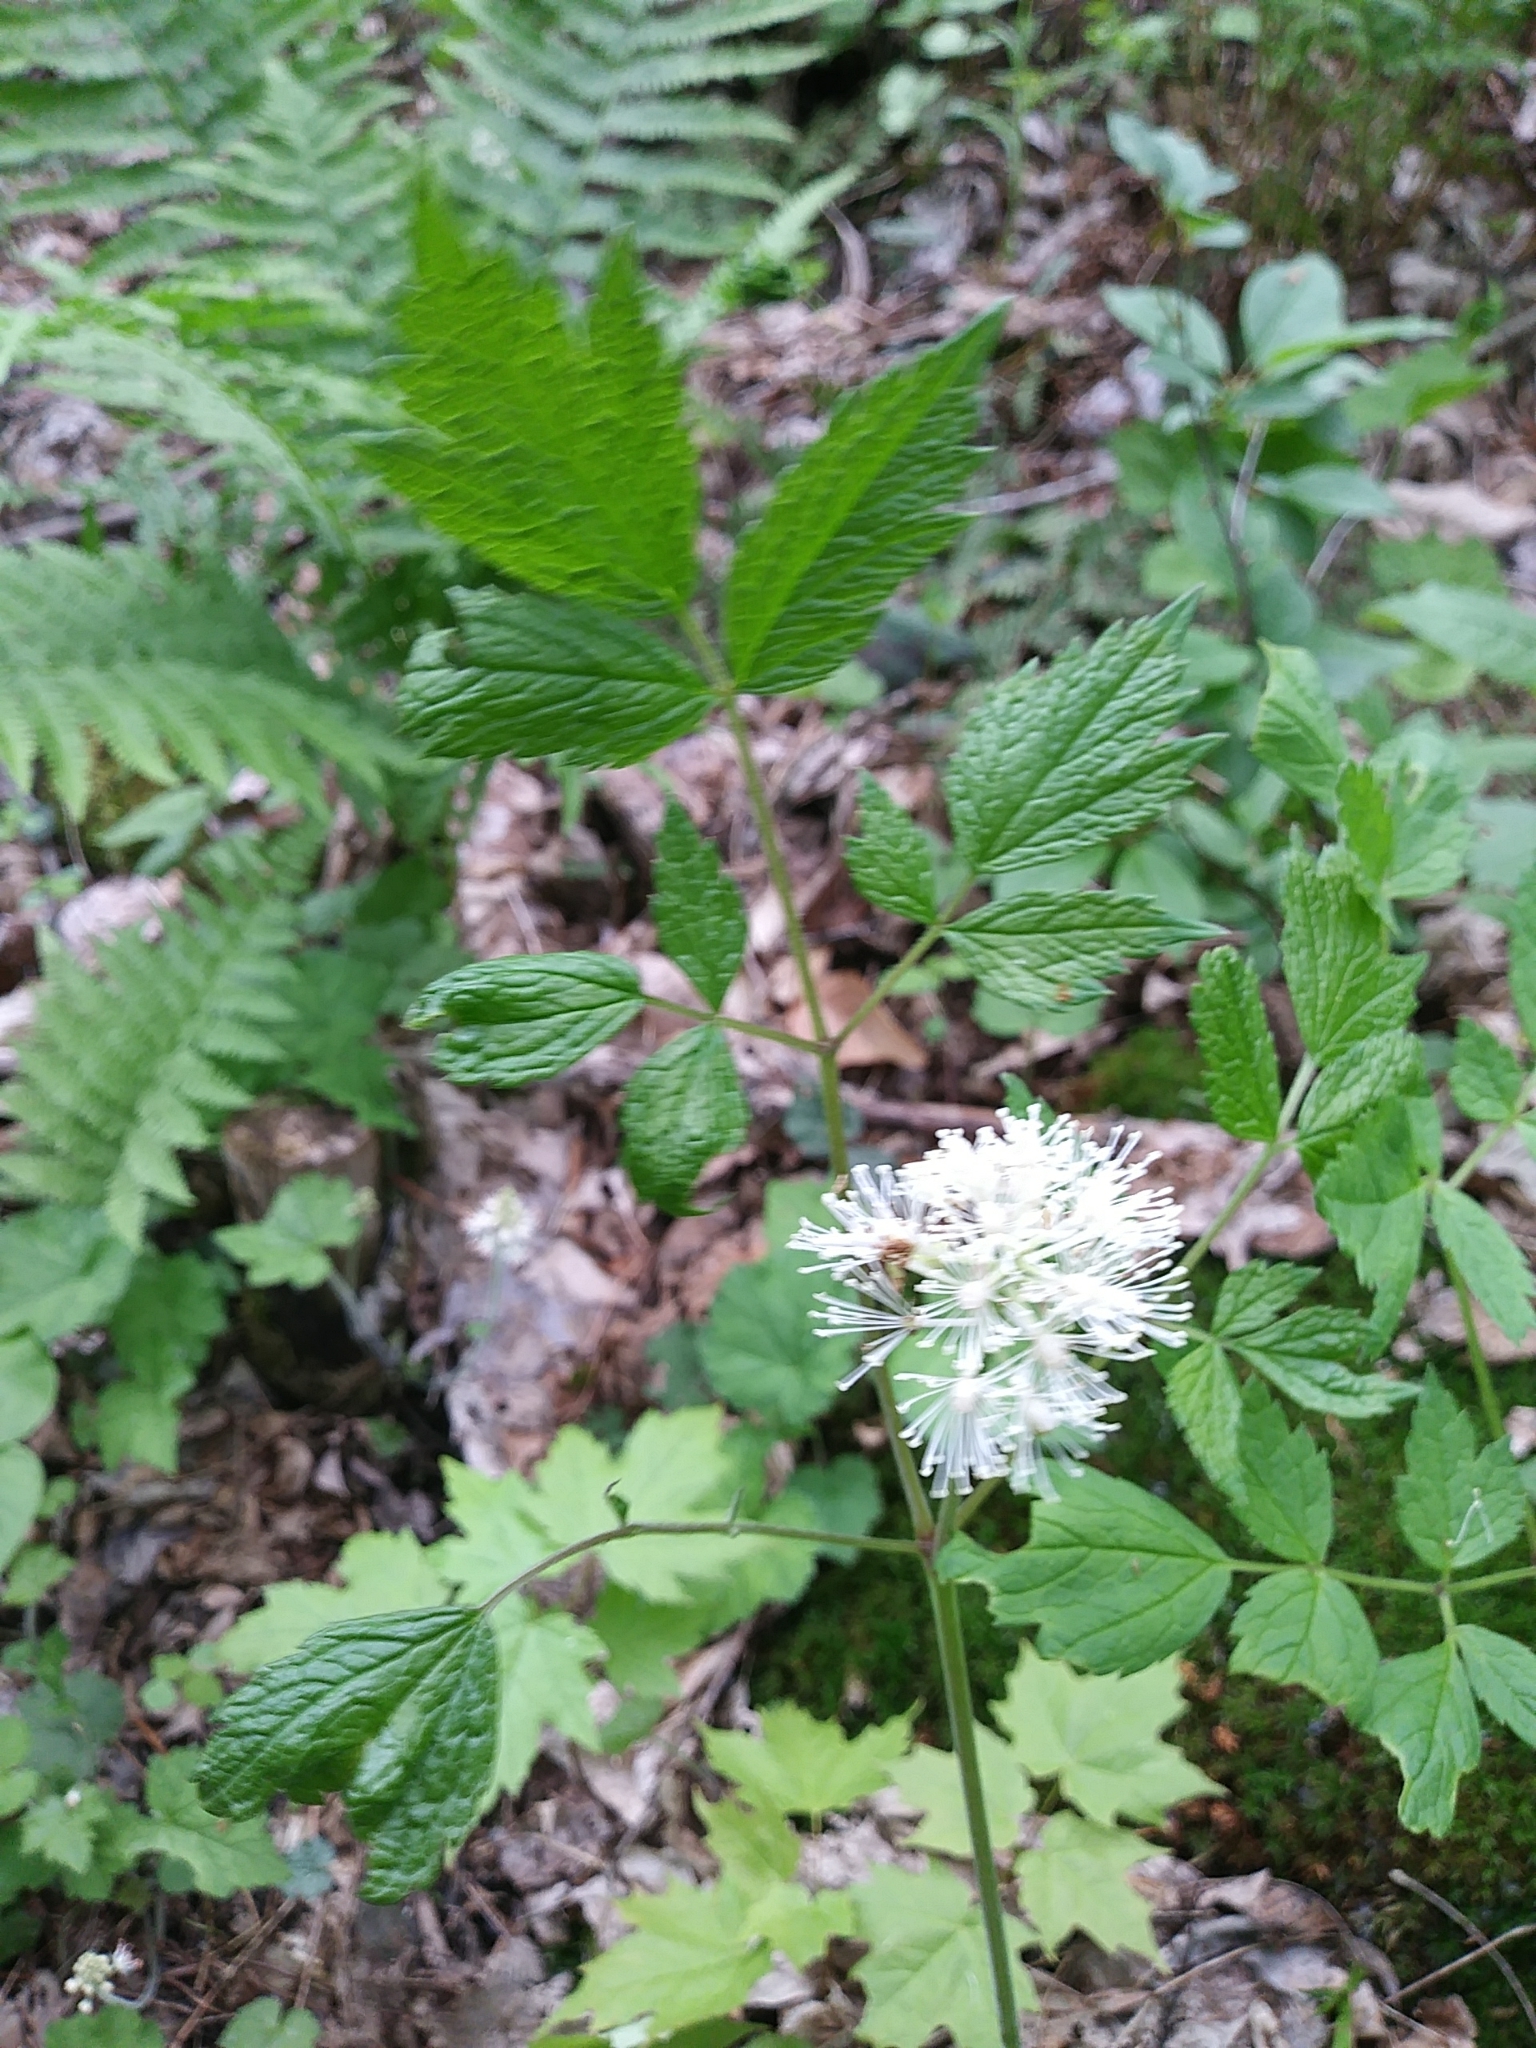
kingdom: Plantae
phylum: Tracheophyta
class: Magnoliopsida
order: Ranunculales
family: Ranunculaceae
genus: Actaea
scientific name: Actaea rubra
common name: Red baneberry
